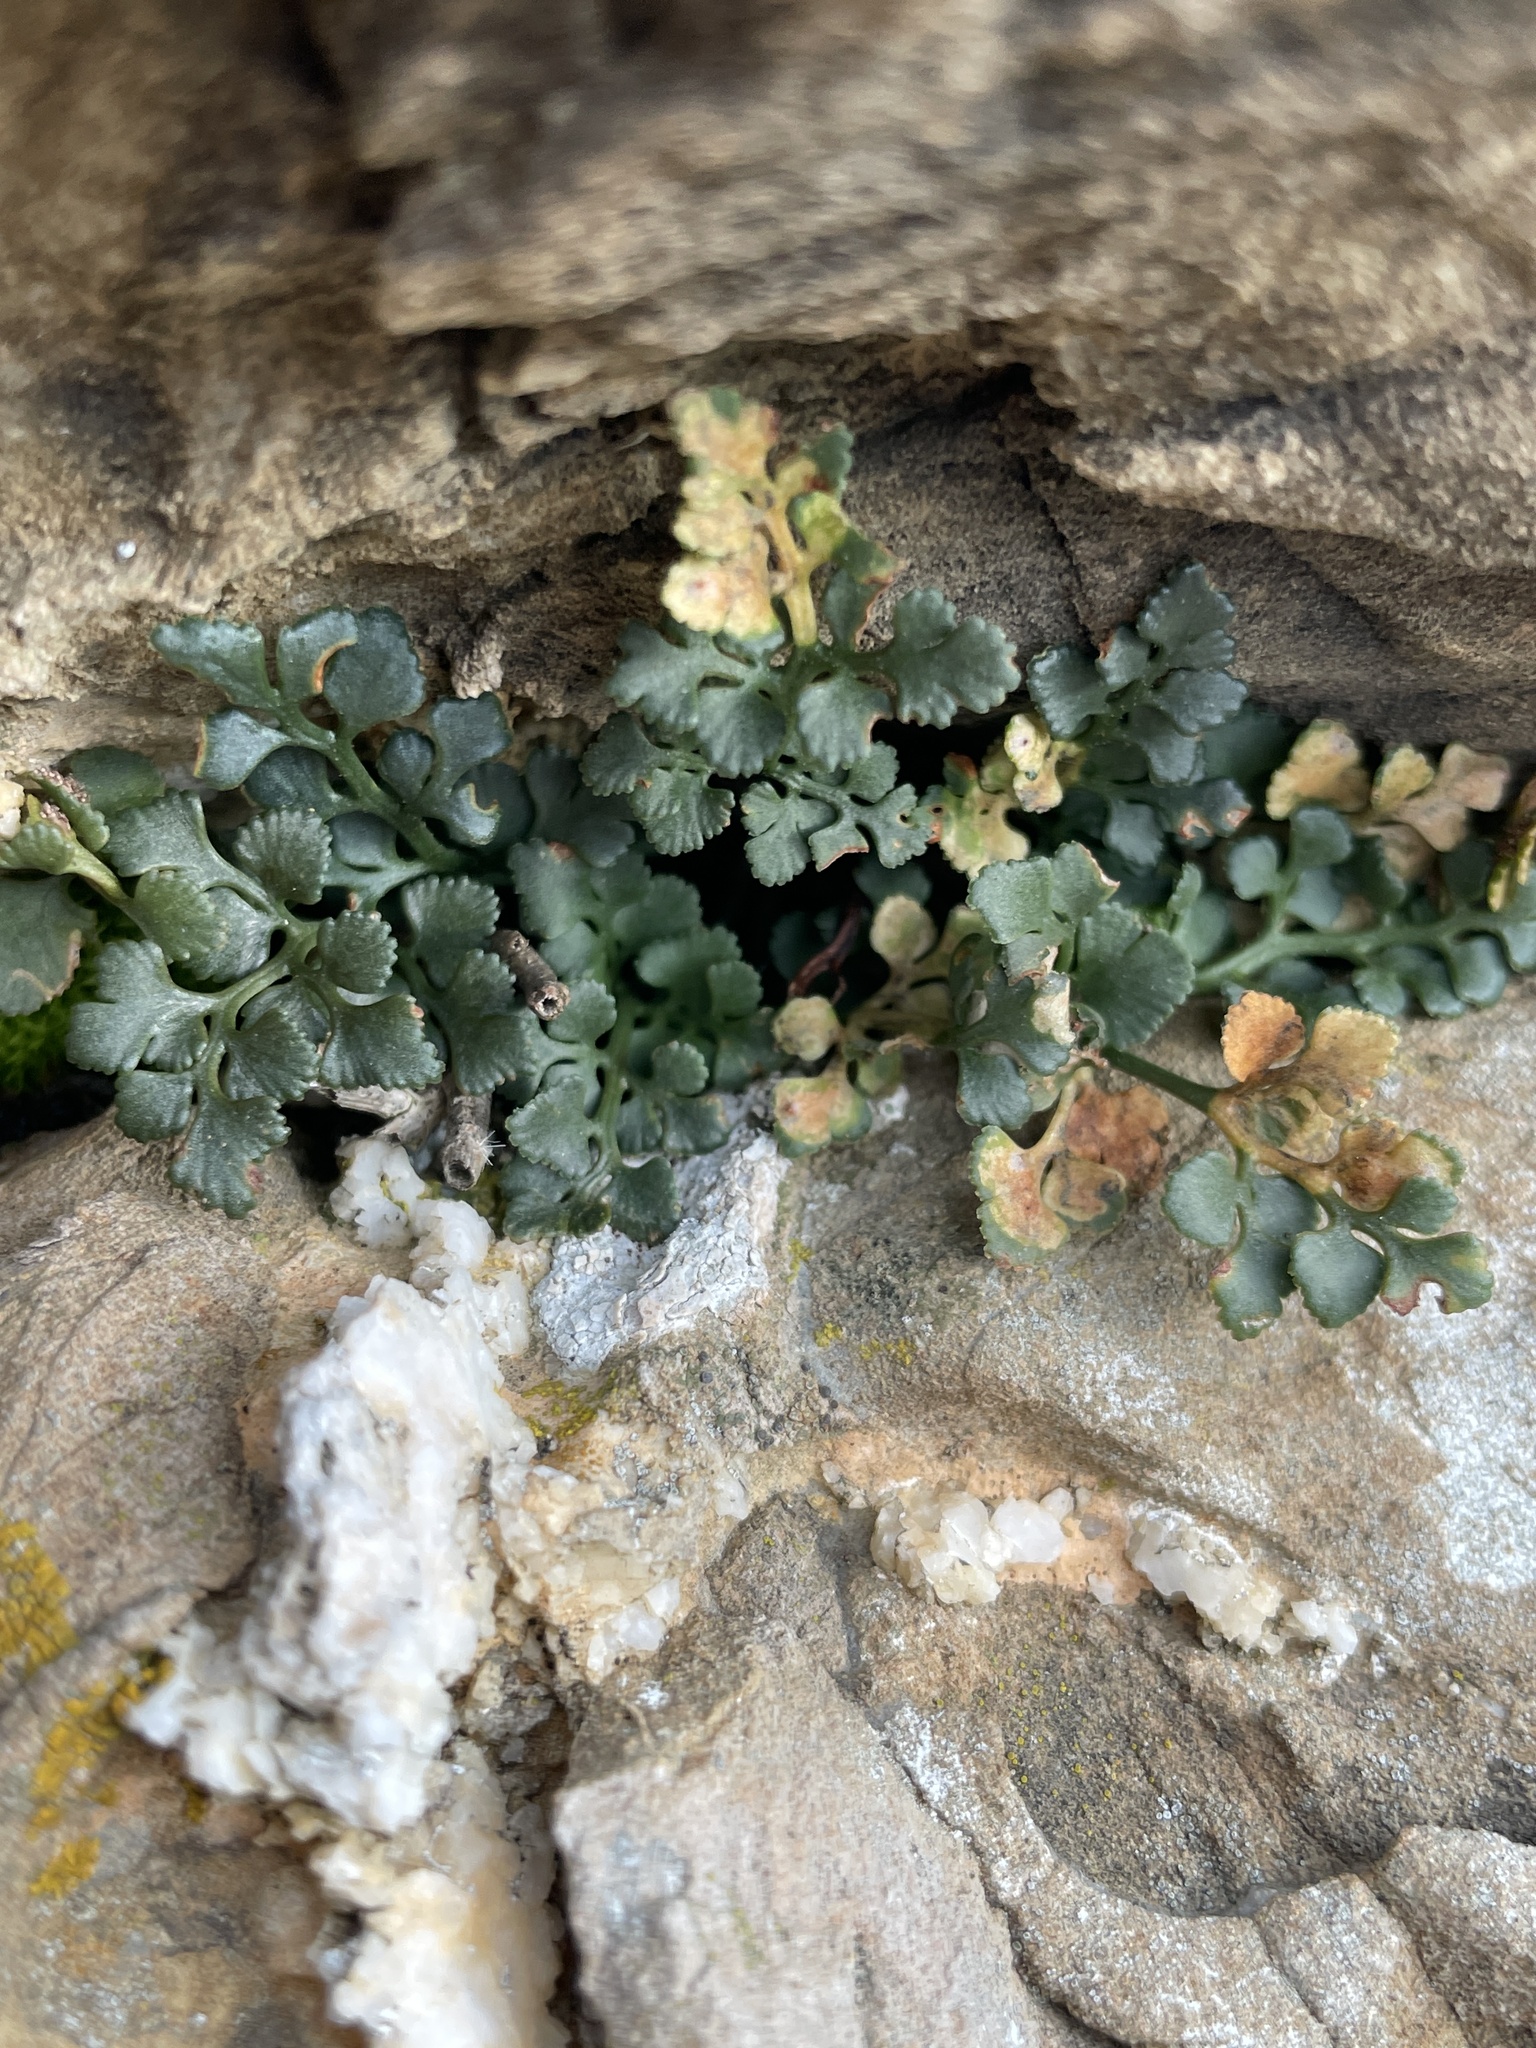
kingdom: Plantae
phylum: Tracheophyta
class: Polypodiopsida
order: Polypodiales
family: Aspleniaceae
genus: Asplenium
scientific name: Asplenium ruta-muraria
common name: Wall-rue
